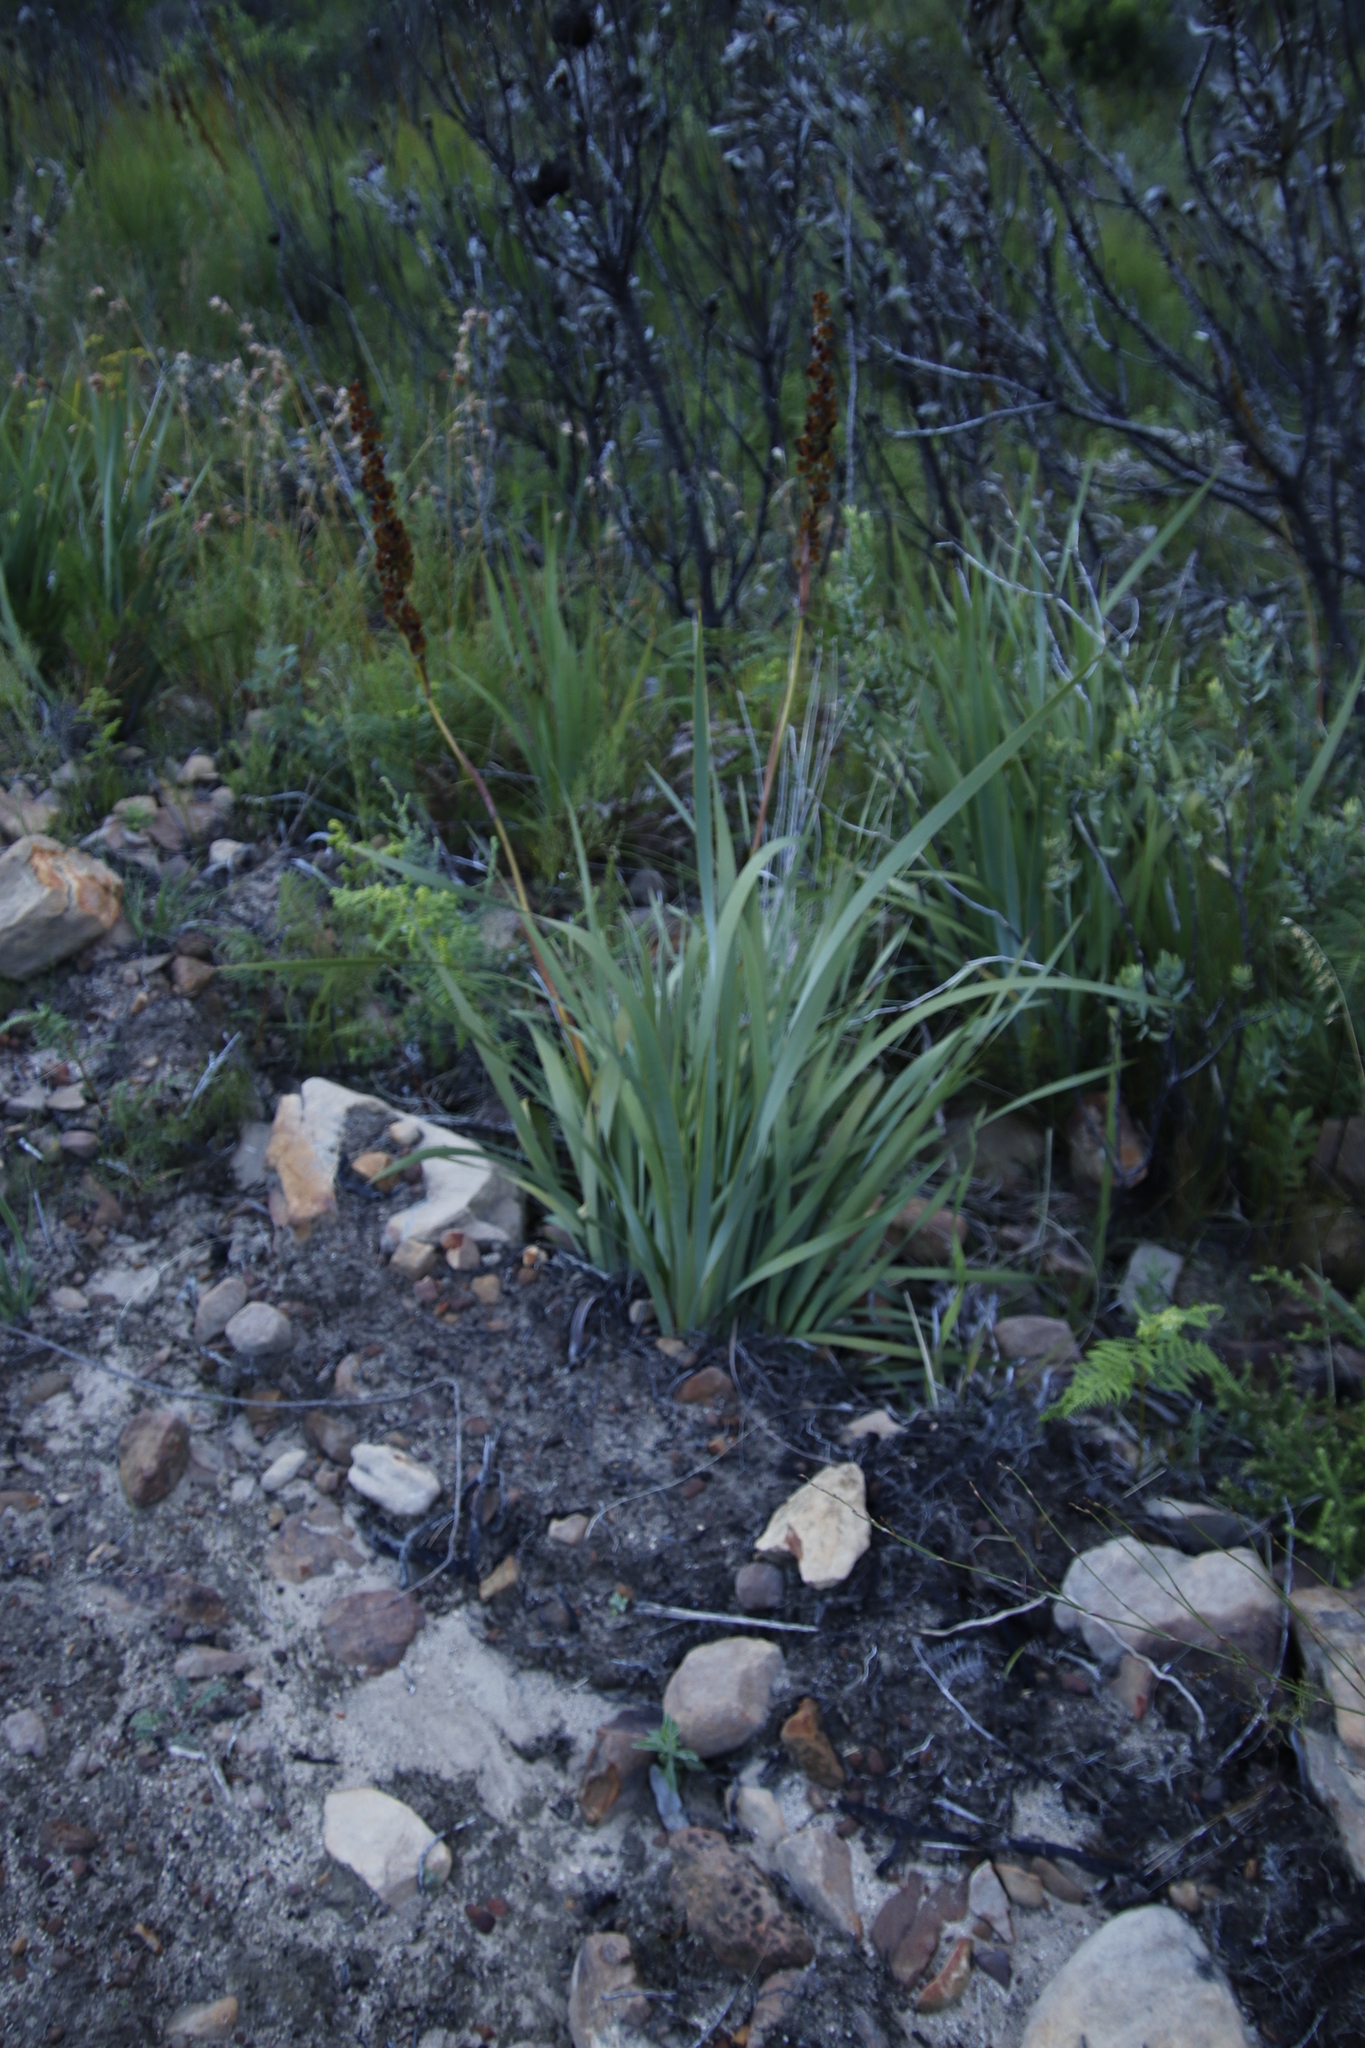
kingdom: Plantae
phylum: Tracheophyta
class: Liliopsida
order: Asparagales
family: Iridaceae
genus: Aristea
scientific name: Aristea capitata
